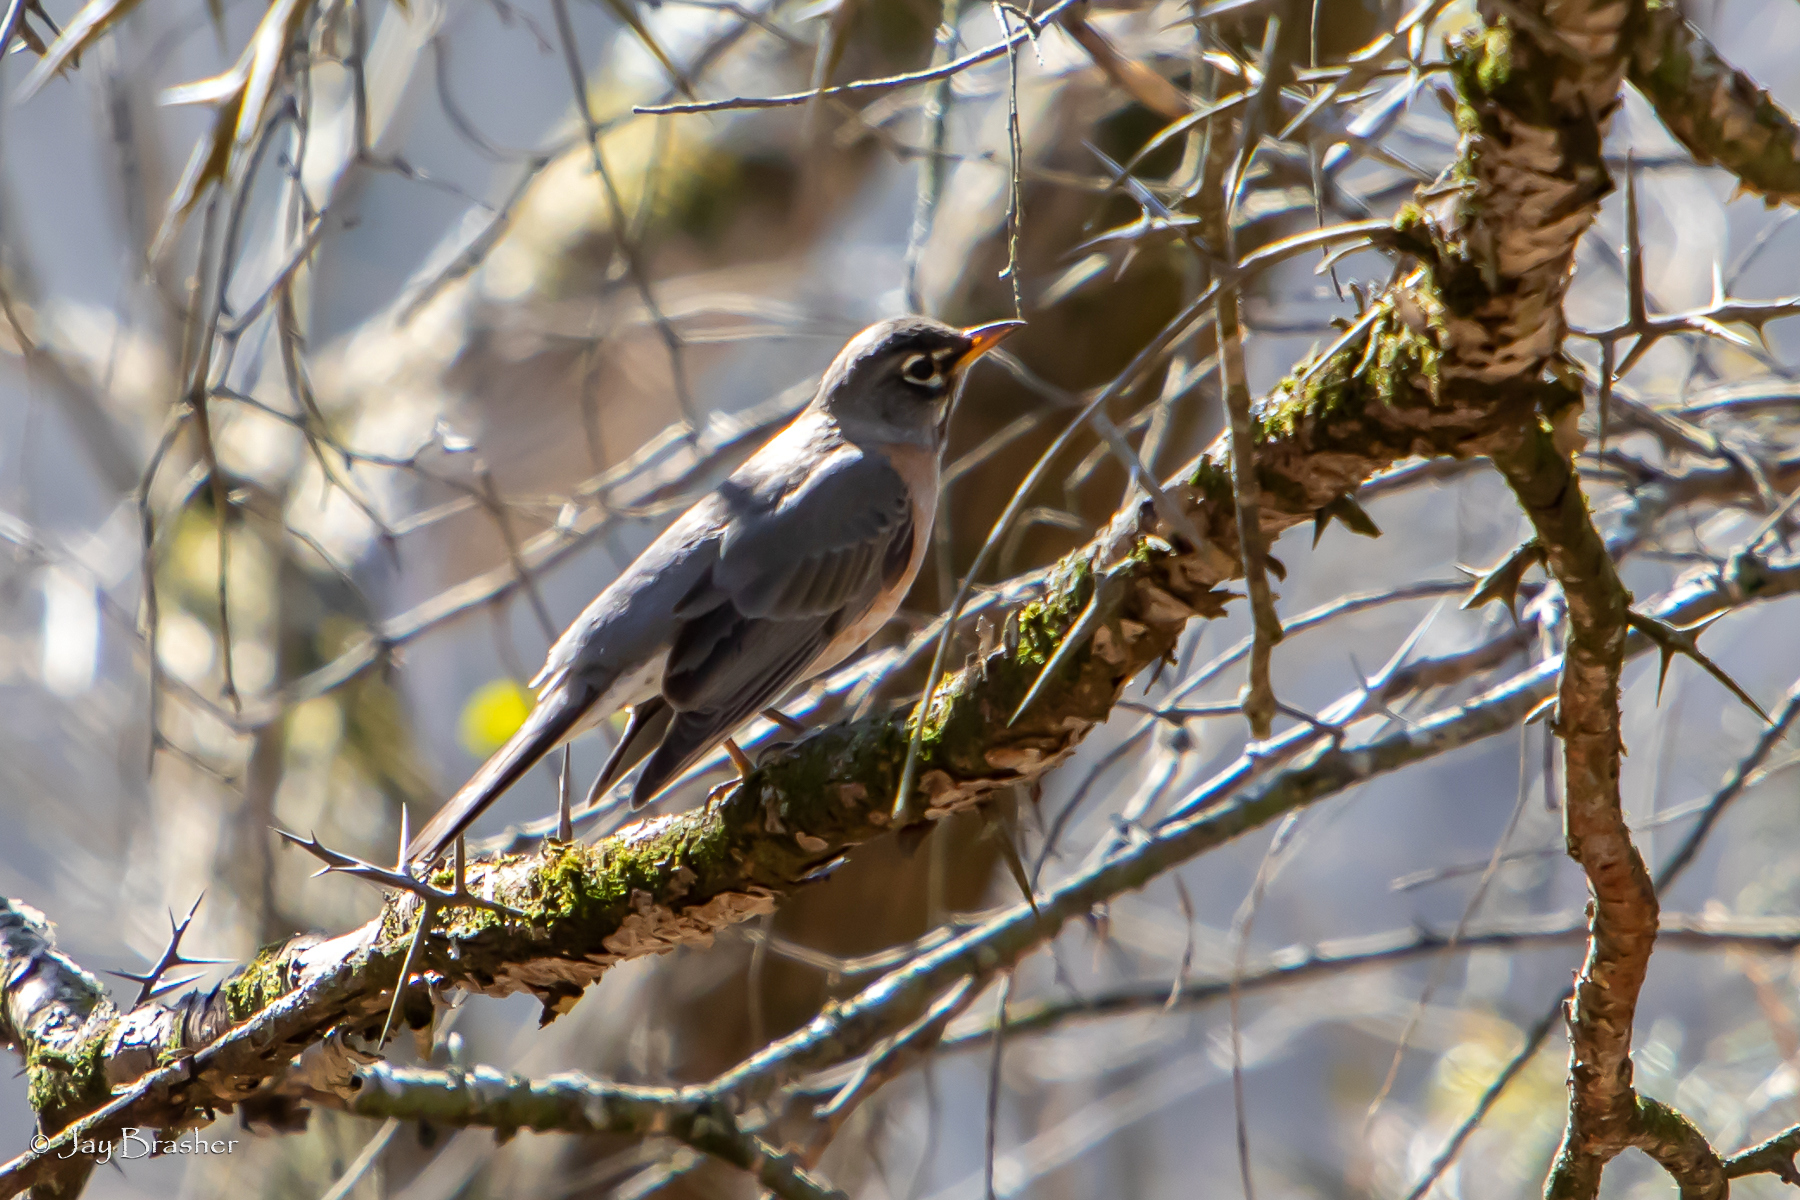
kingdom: Animalia
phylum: Chordata
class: Aves
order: Passeriformes
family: Turdidae
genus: Turdus
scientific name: Turdus migratorius
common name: American robin
